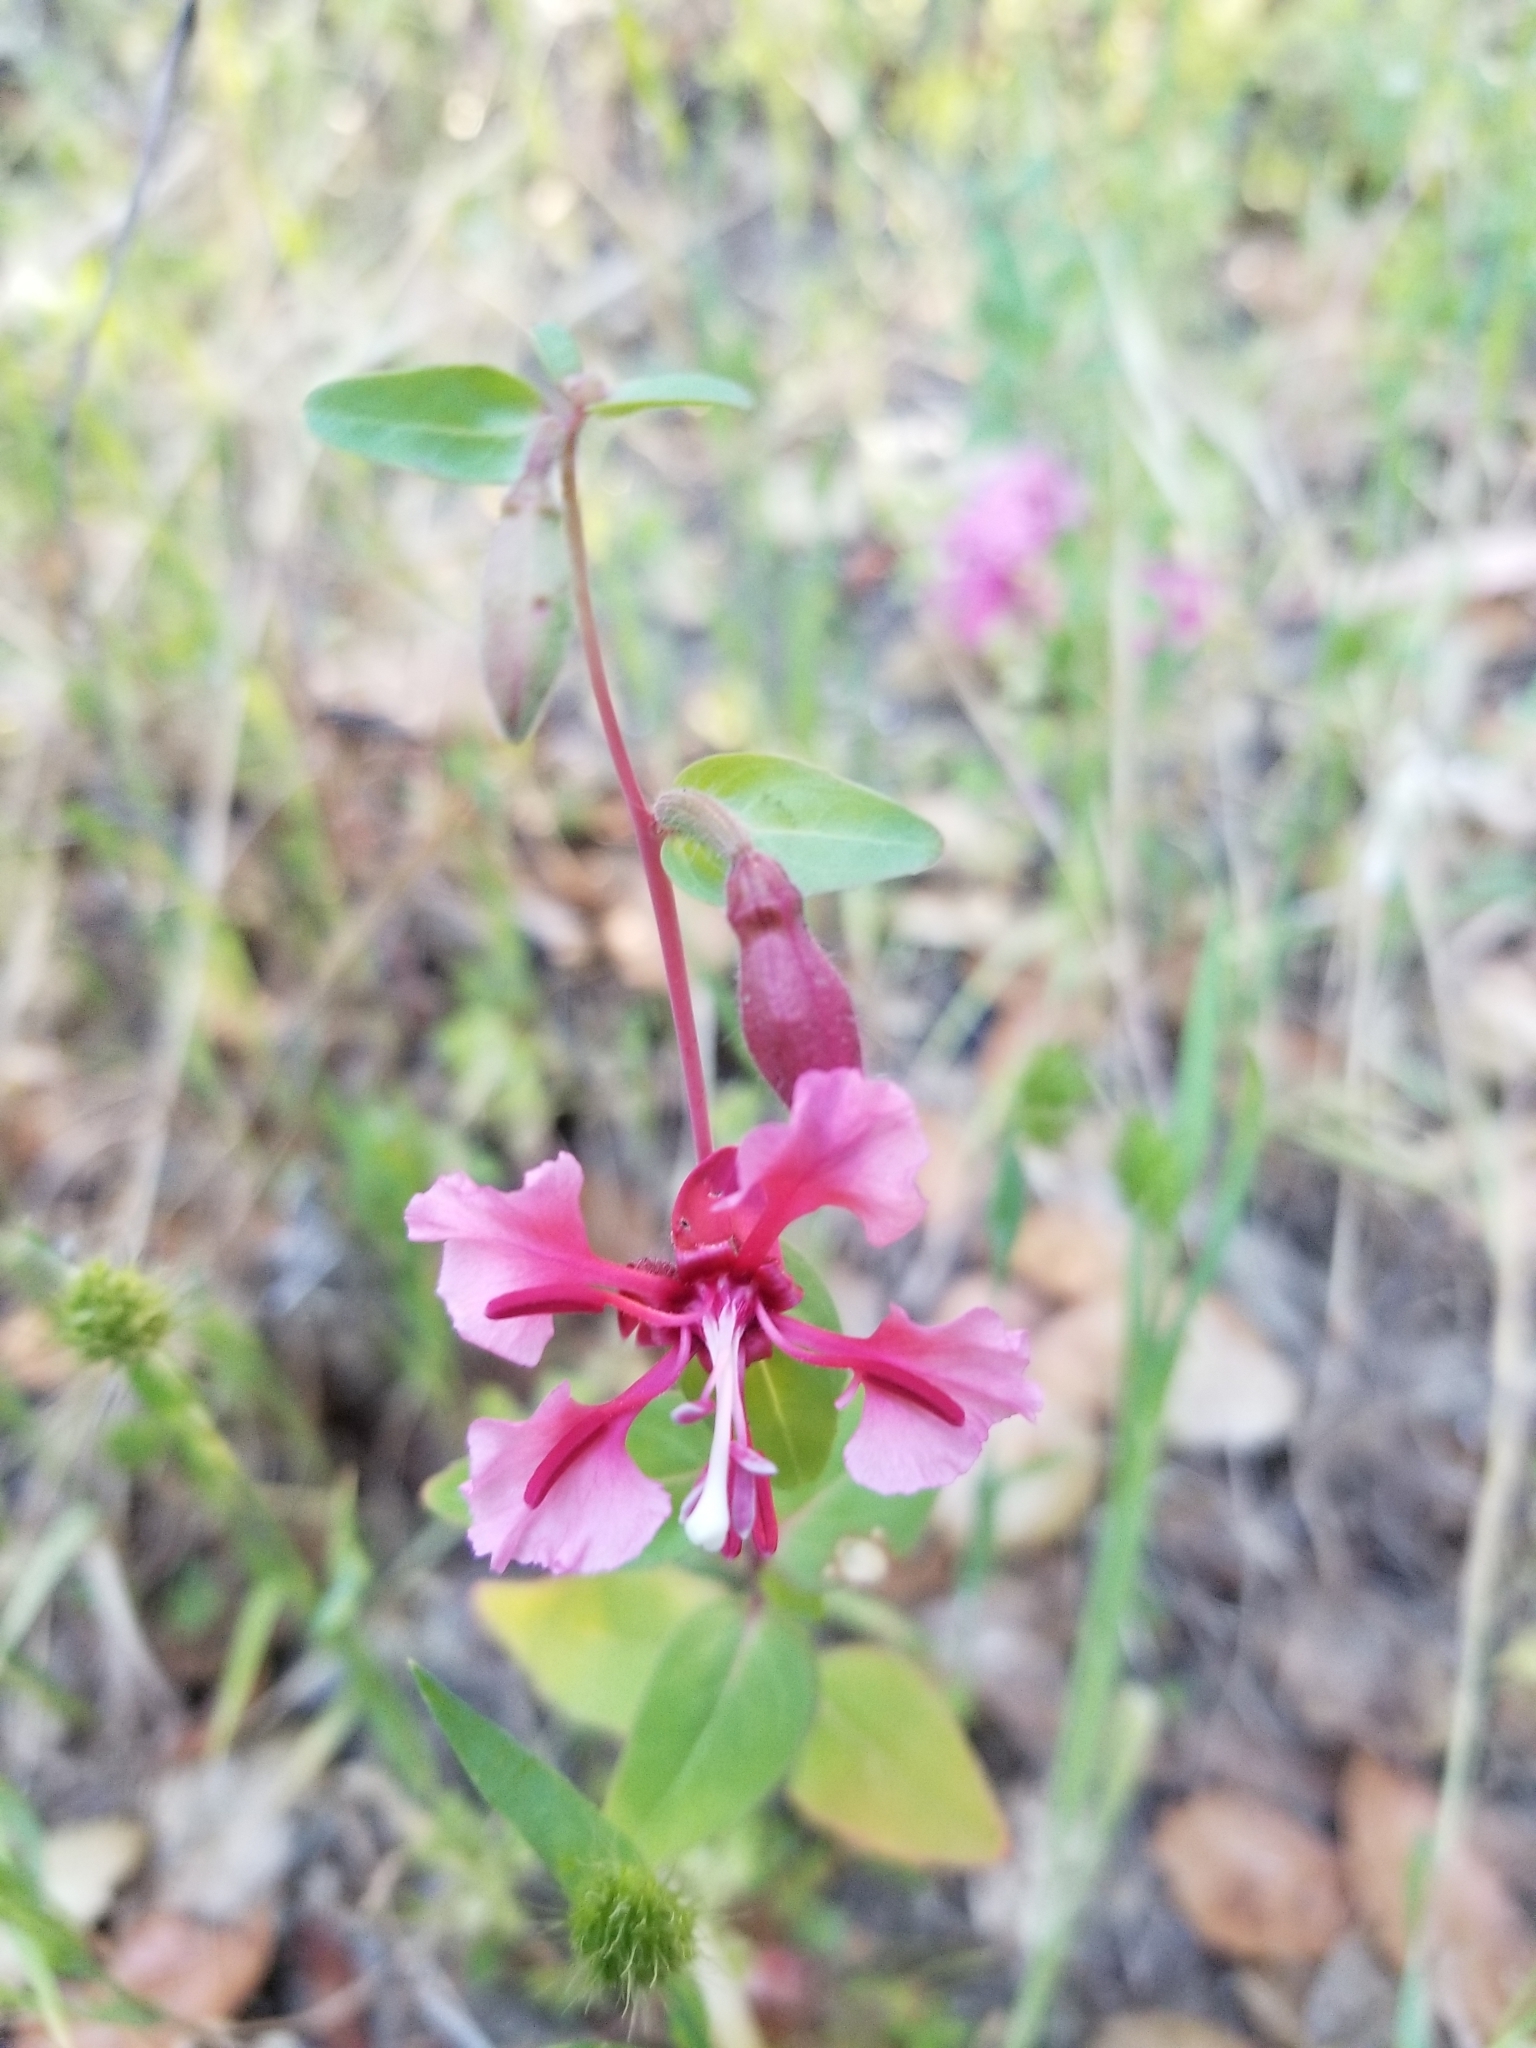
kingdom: Plantae
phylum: Tracheophyta
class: Magnoliopsida
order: Myrtales
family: Onagraceae
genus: Clarkia
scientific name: Clarkia unguiculata
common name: Clarkia
